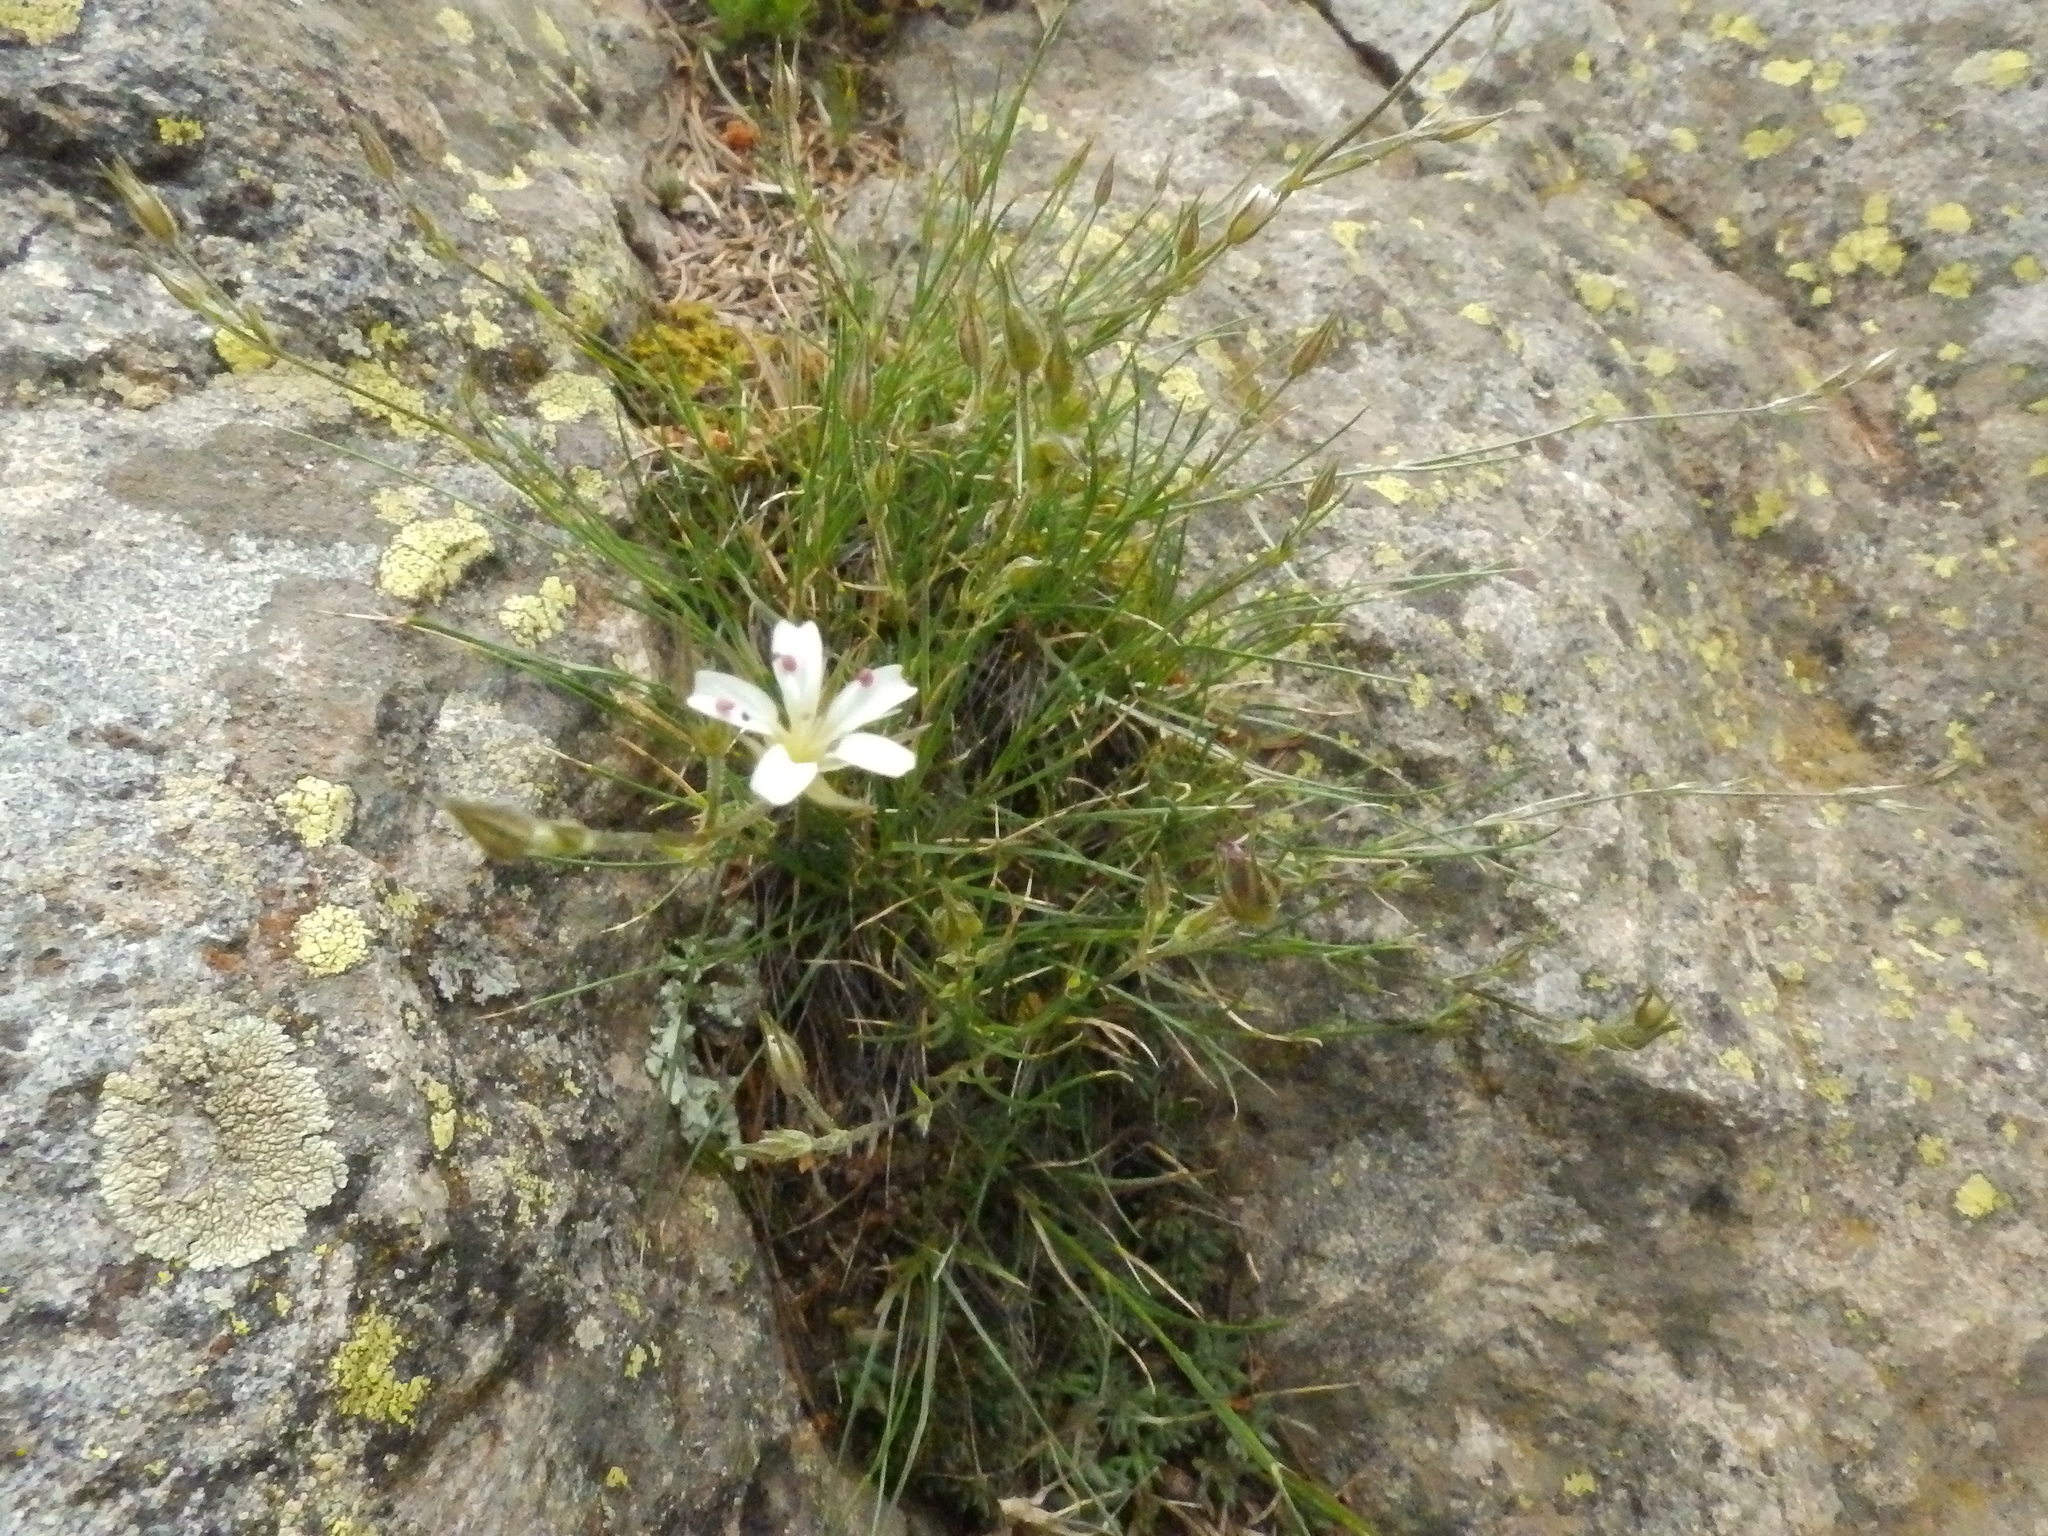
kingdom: Plantae
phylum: Tracheophyta
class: Magnoliopsida
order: Caryophyllales
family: Caryophyllaceae
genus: Eremogone
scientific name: Eremogone fendleri
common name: Fendler's sandwort
